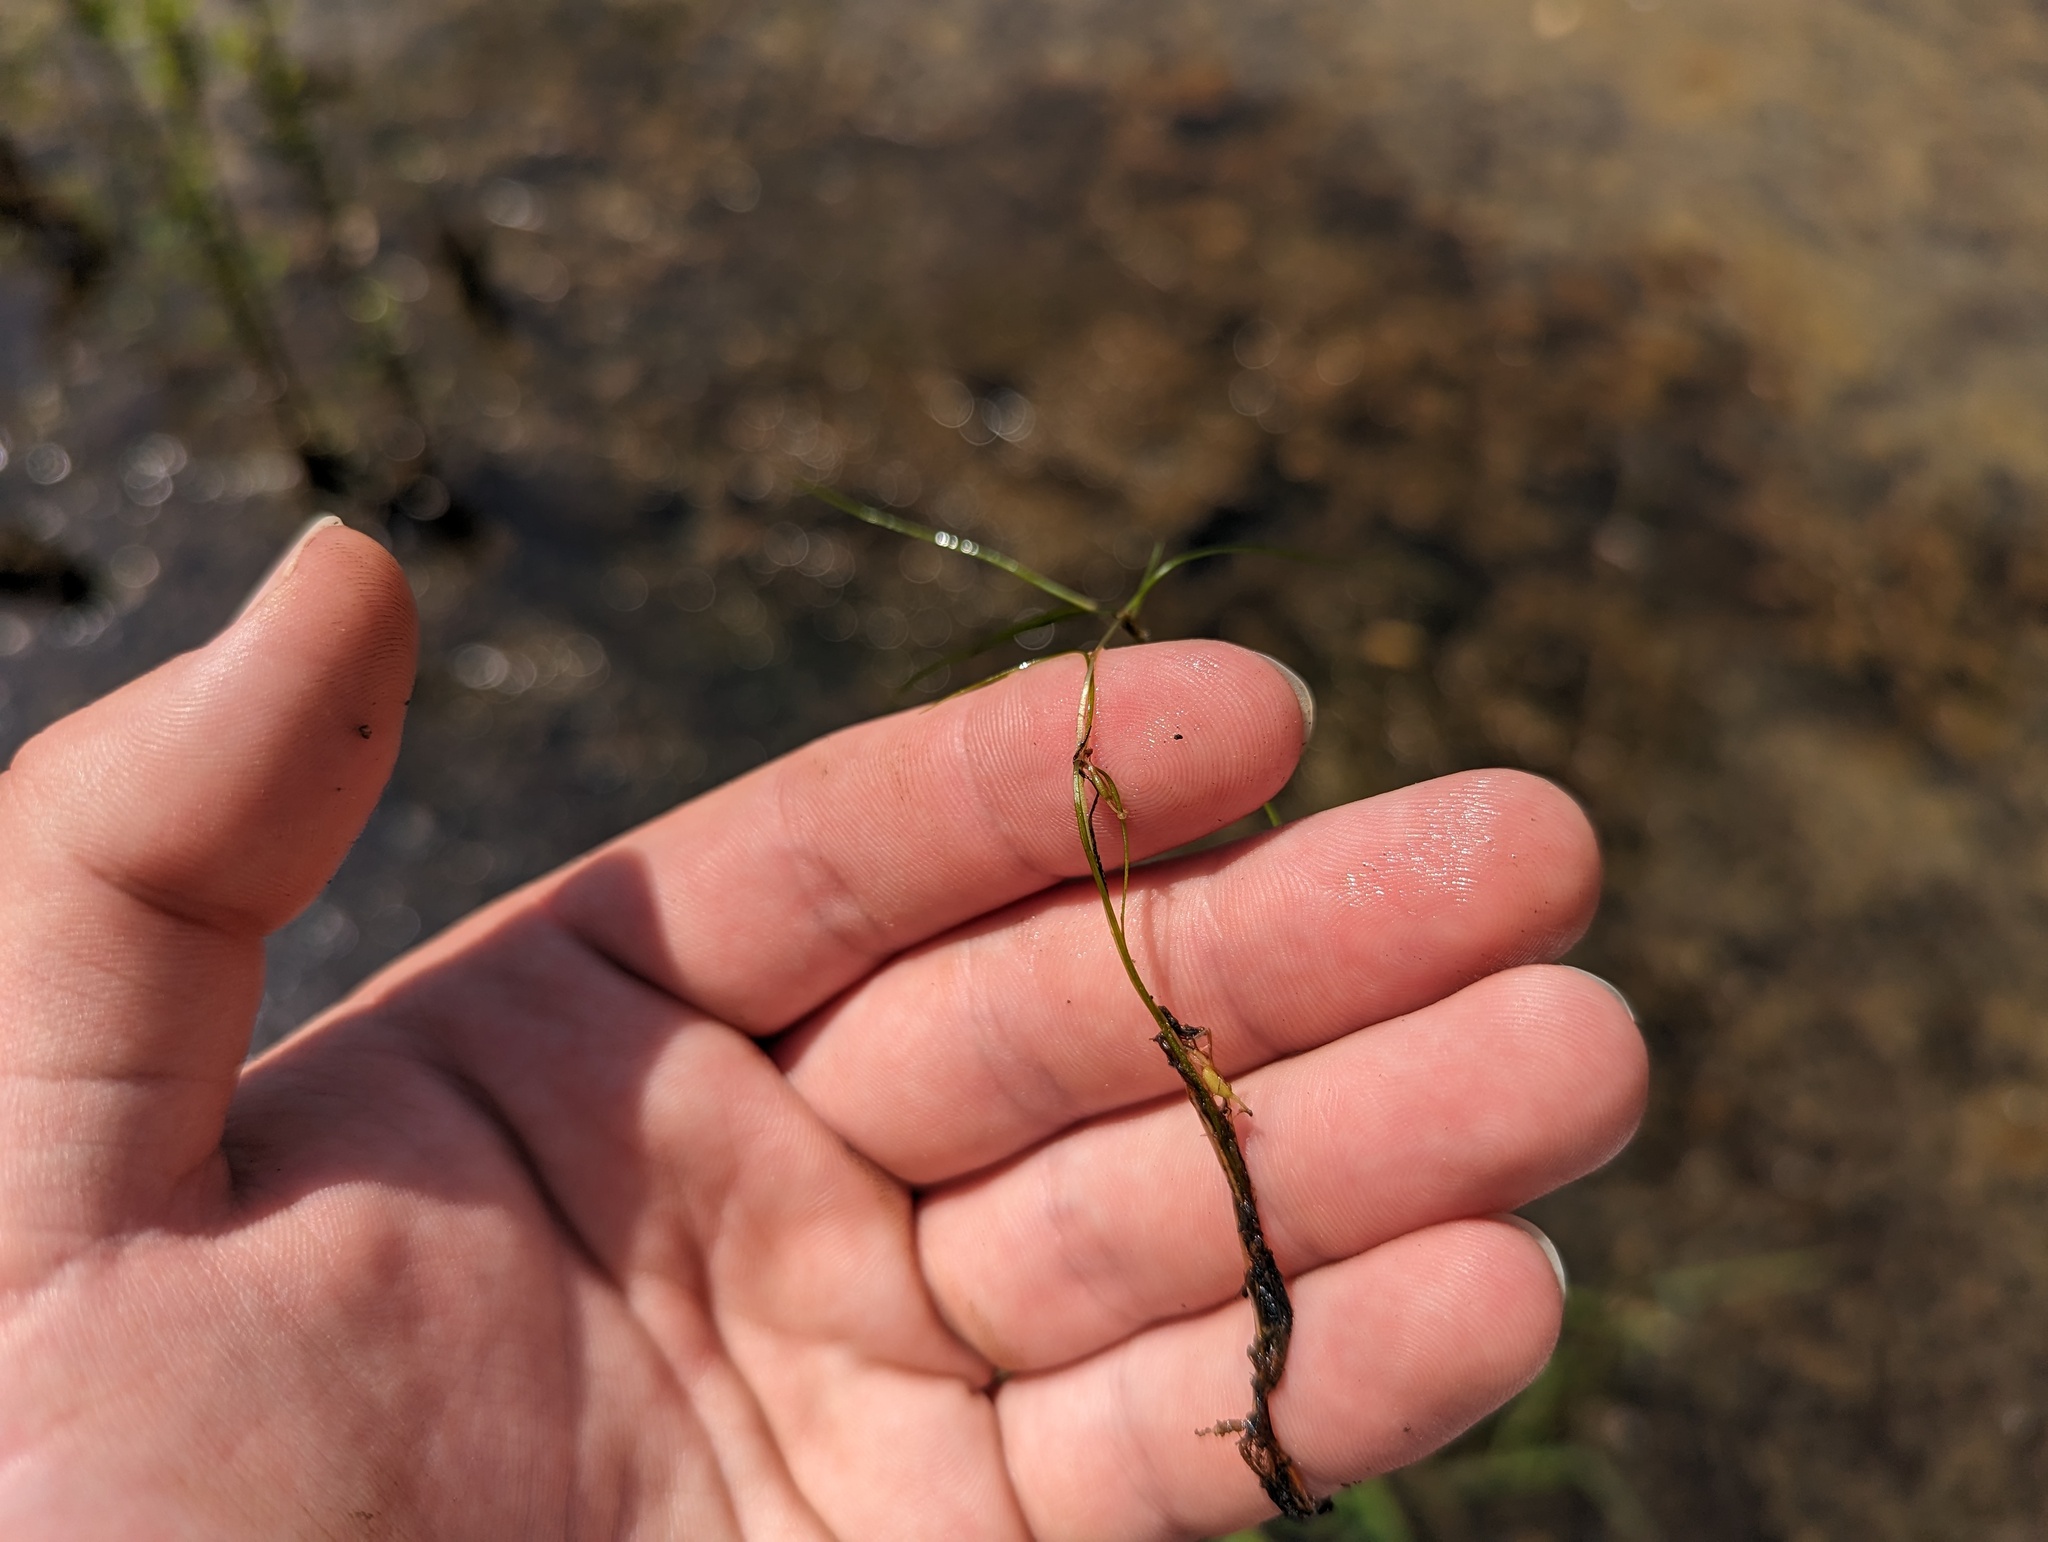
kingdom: Plantae
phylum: Tracheophyta
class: Liliopsida
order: Alismatales
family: Potamogetonaceae
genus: Zannichellia
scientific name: Zannichellia palustris
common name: Horned pondweed
